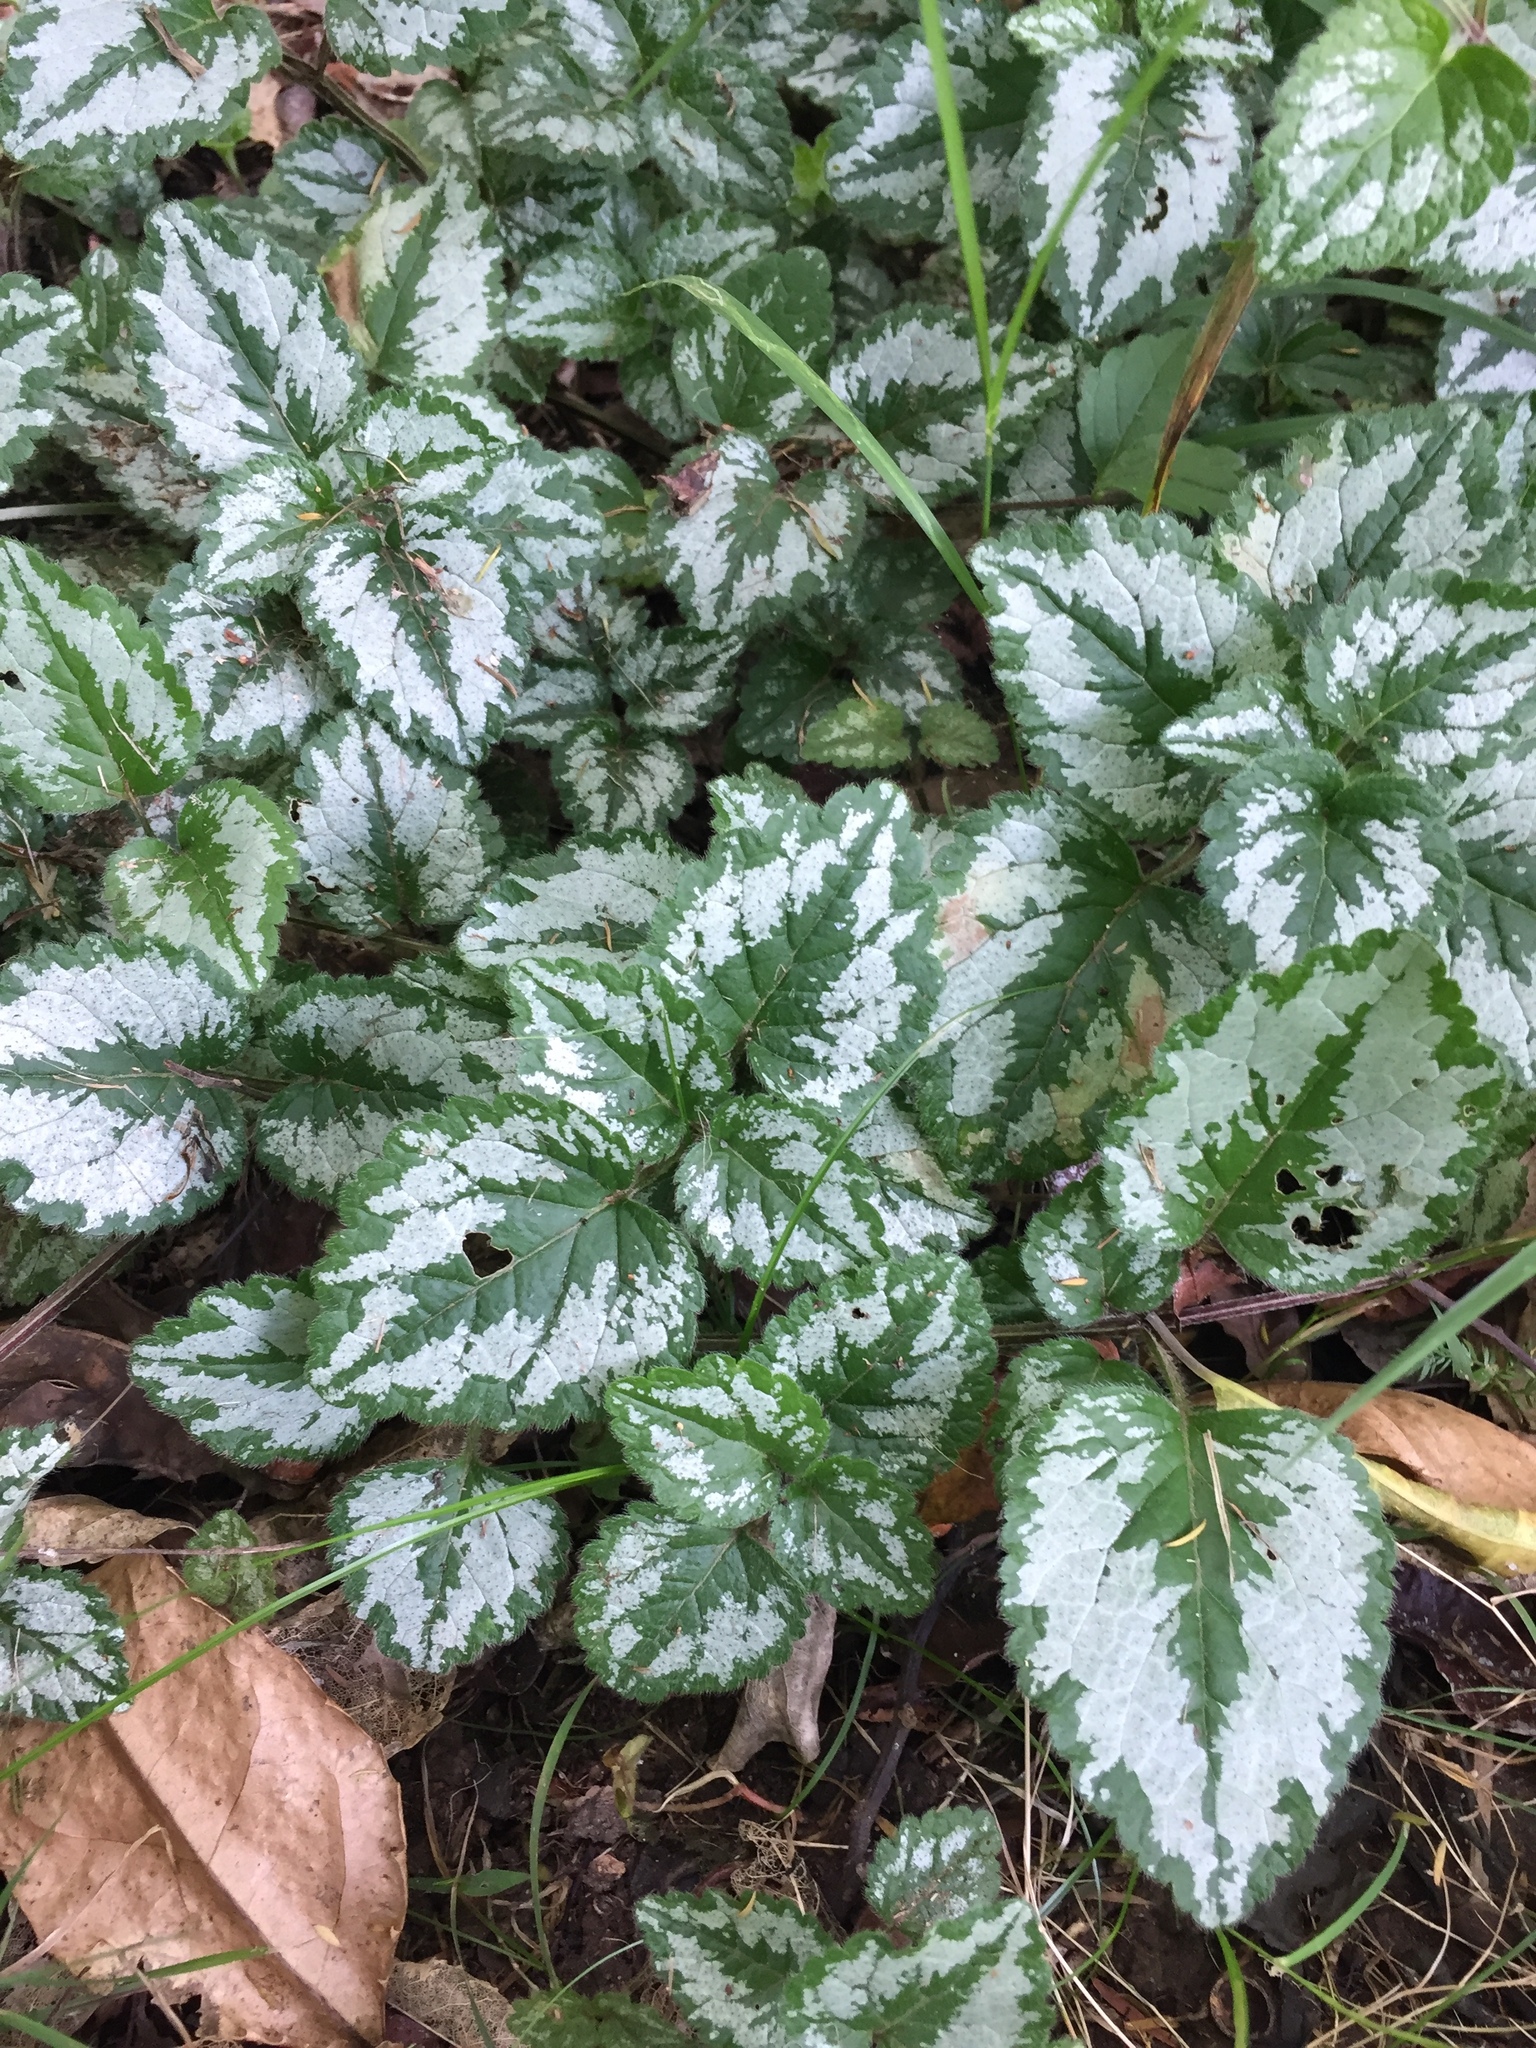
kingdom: Plantae
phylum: Tracheophyta
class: Magnoliopsida
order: Lamiales
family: Lamiaceae
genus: Lamium
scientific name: Lamium galeobdolon
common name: Yellow archangel
